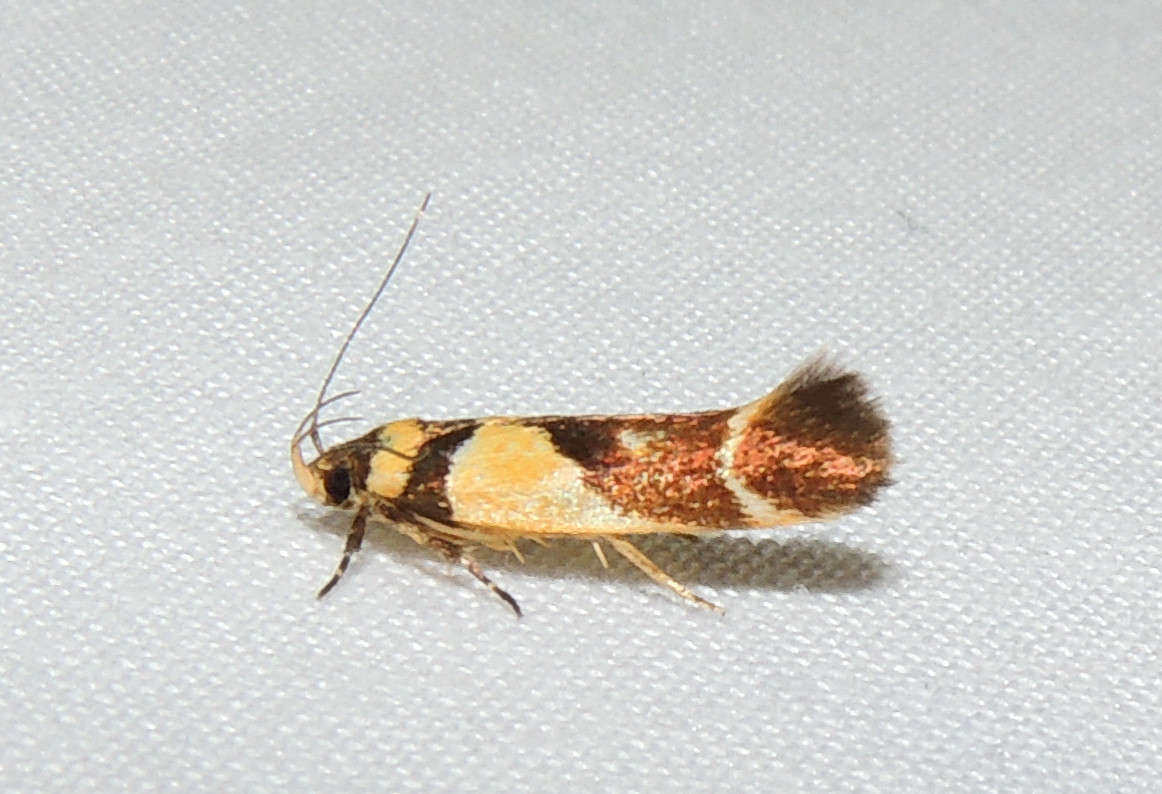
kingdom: Animalia
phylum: Arthropoda
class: Insecta
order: Lepidoptera
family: Cosmopterigidae
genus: Macrobathra
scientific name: Macrobathra chrysotoxa
